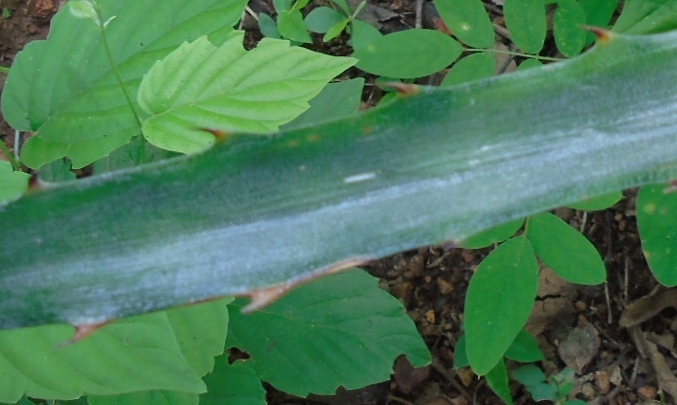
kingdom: Plantae
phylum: Tracheophyta
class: Liliopsida
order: Poales
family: Bromeliaceae
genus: Bromelia
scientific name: Bromelia pinguin
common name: Pinguin
